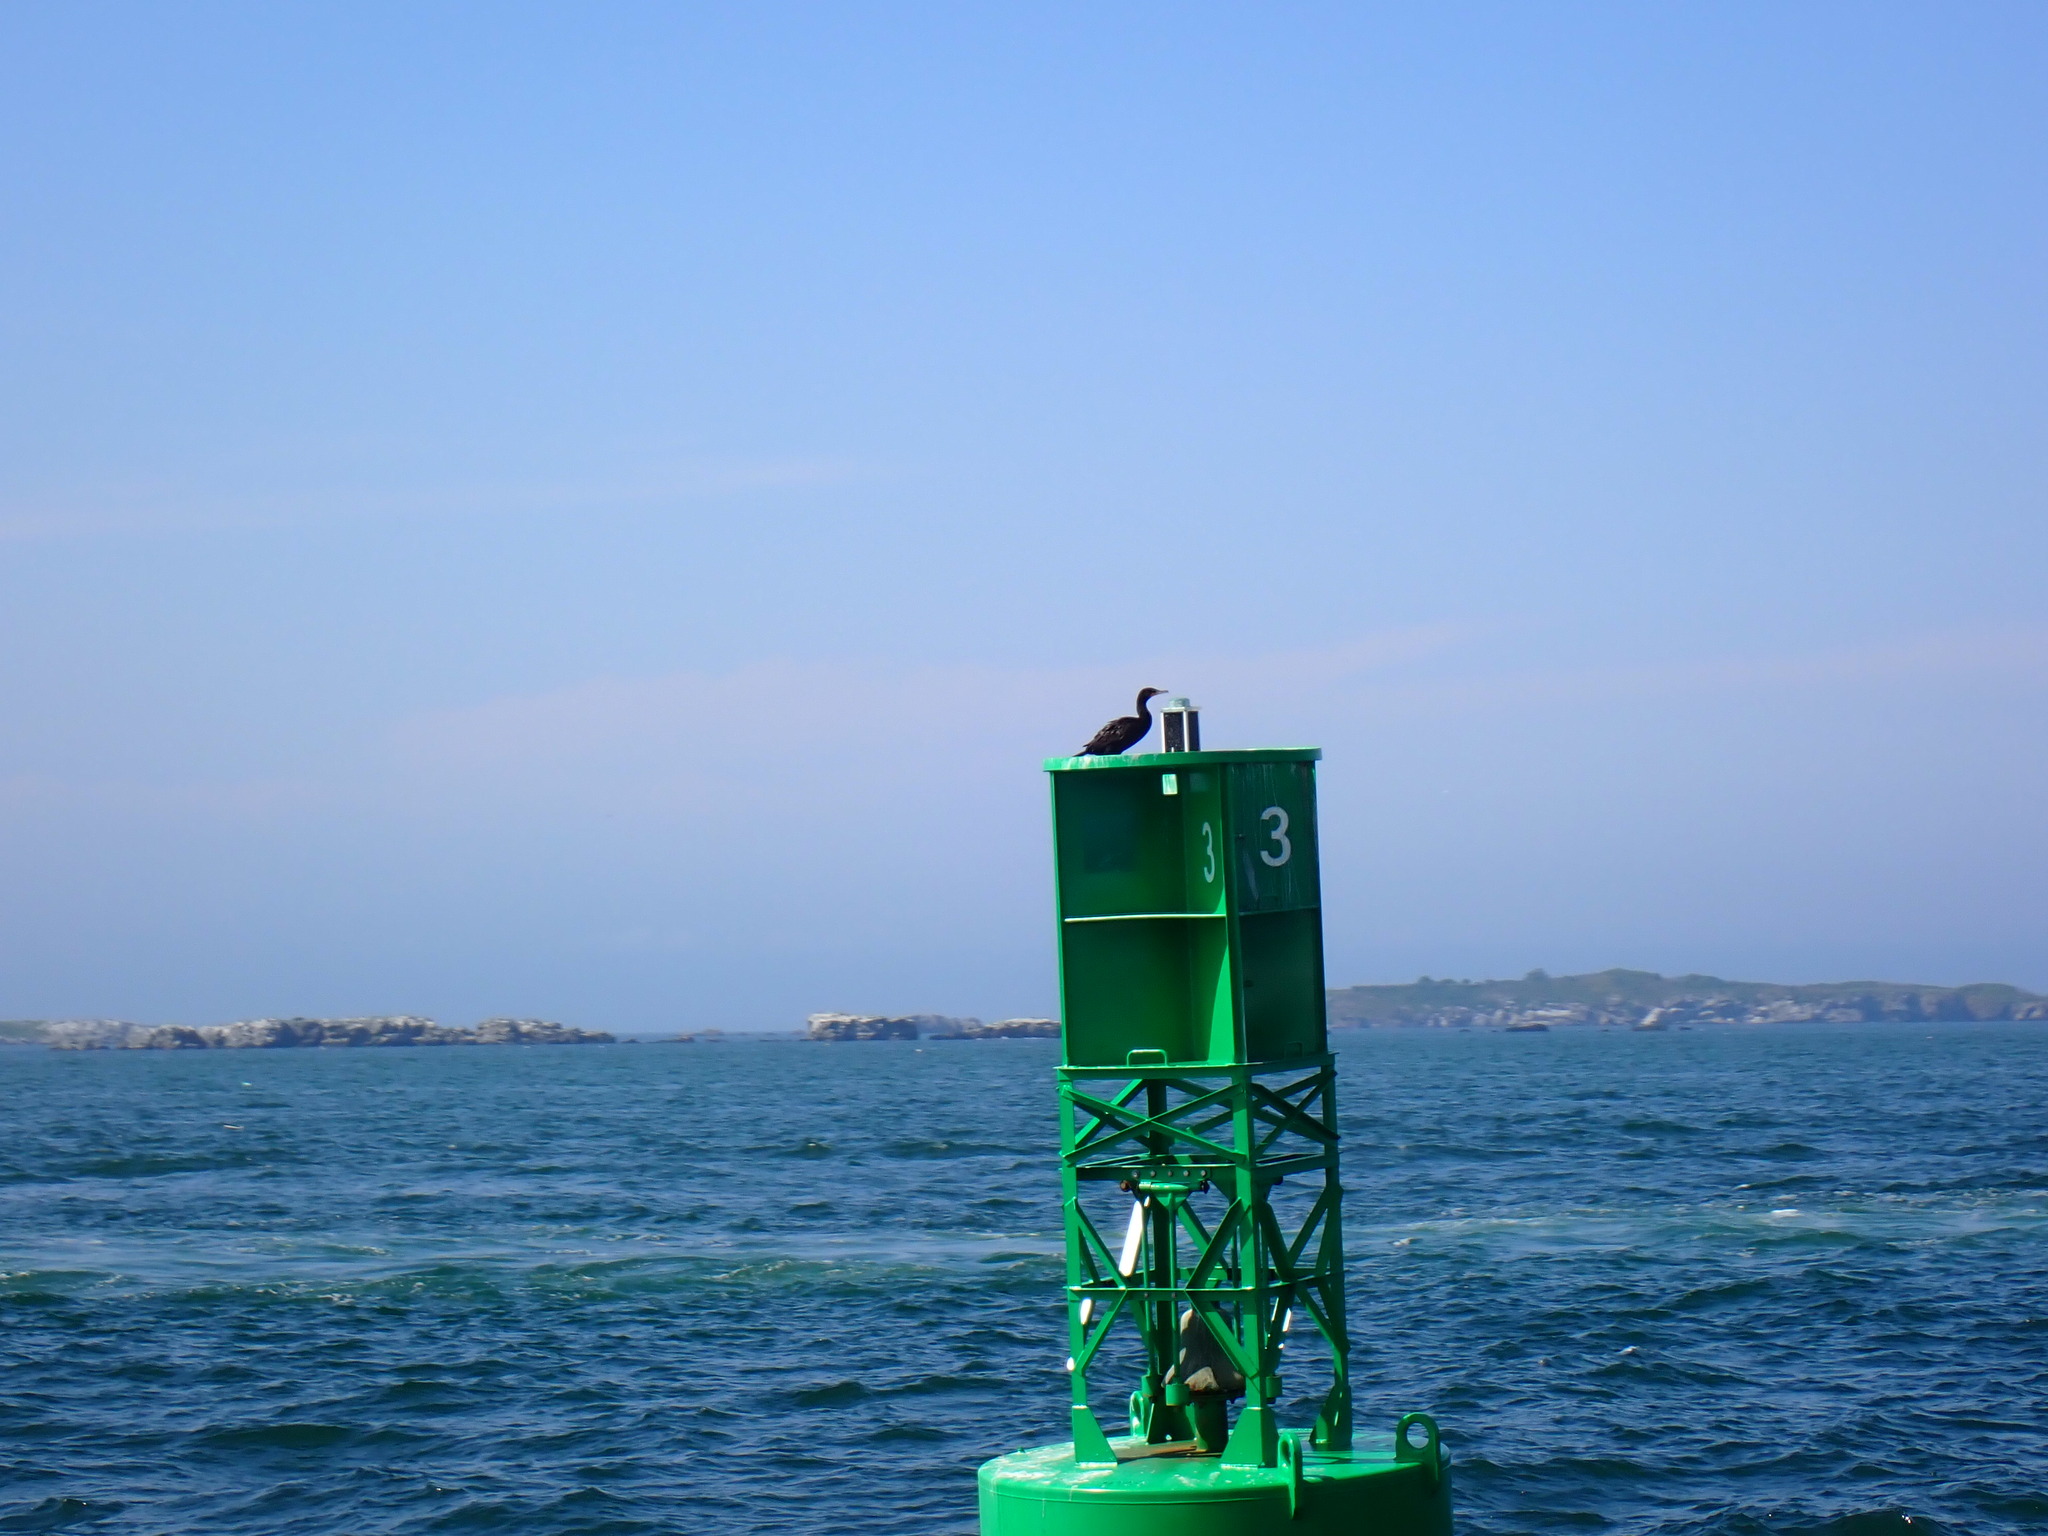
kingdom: Animalia
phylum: Chordata
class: Aves
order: Suliformes
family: Phalacrocoracidae
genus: Phalacrocorax
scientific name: Phalacrocorax auritus
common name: Double-crested cormorant
